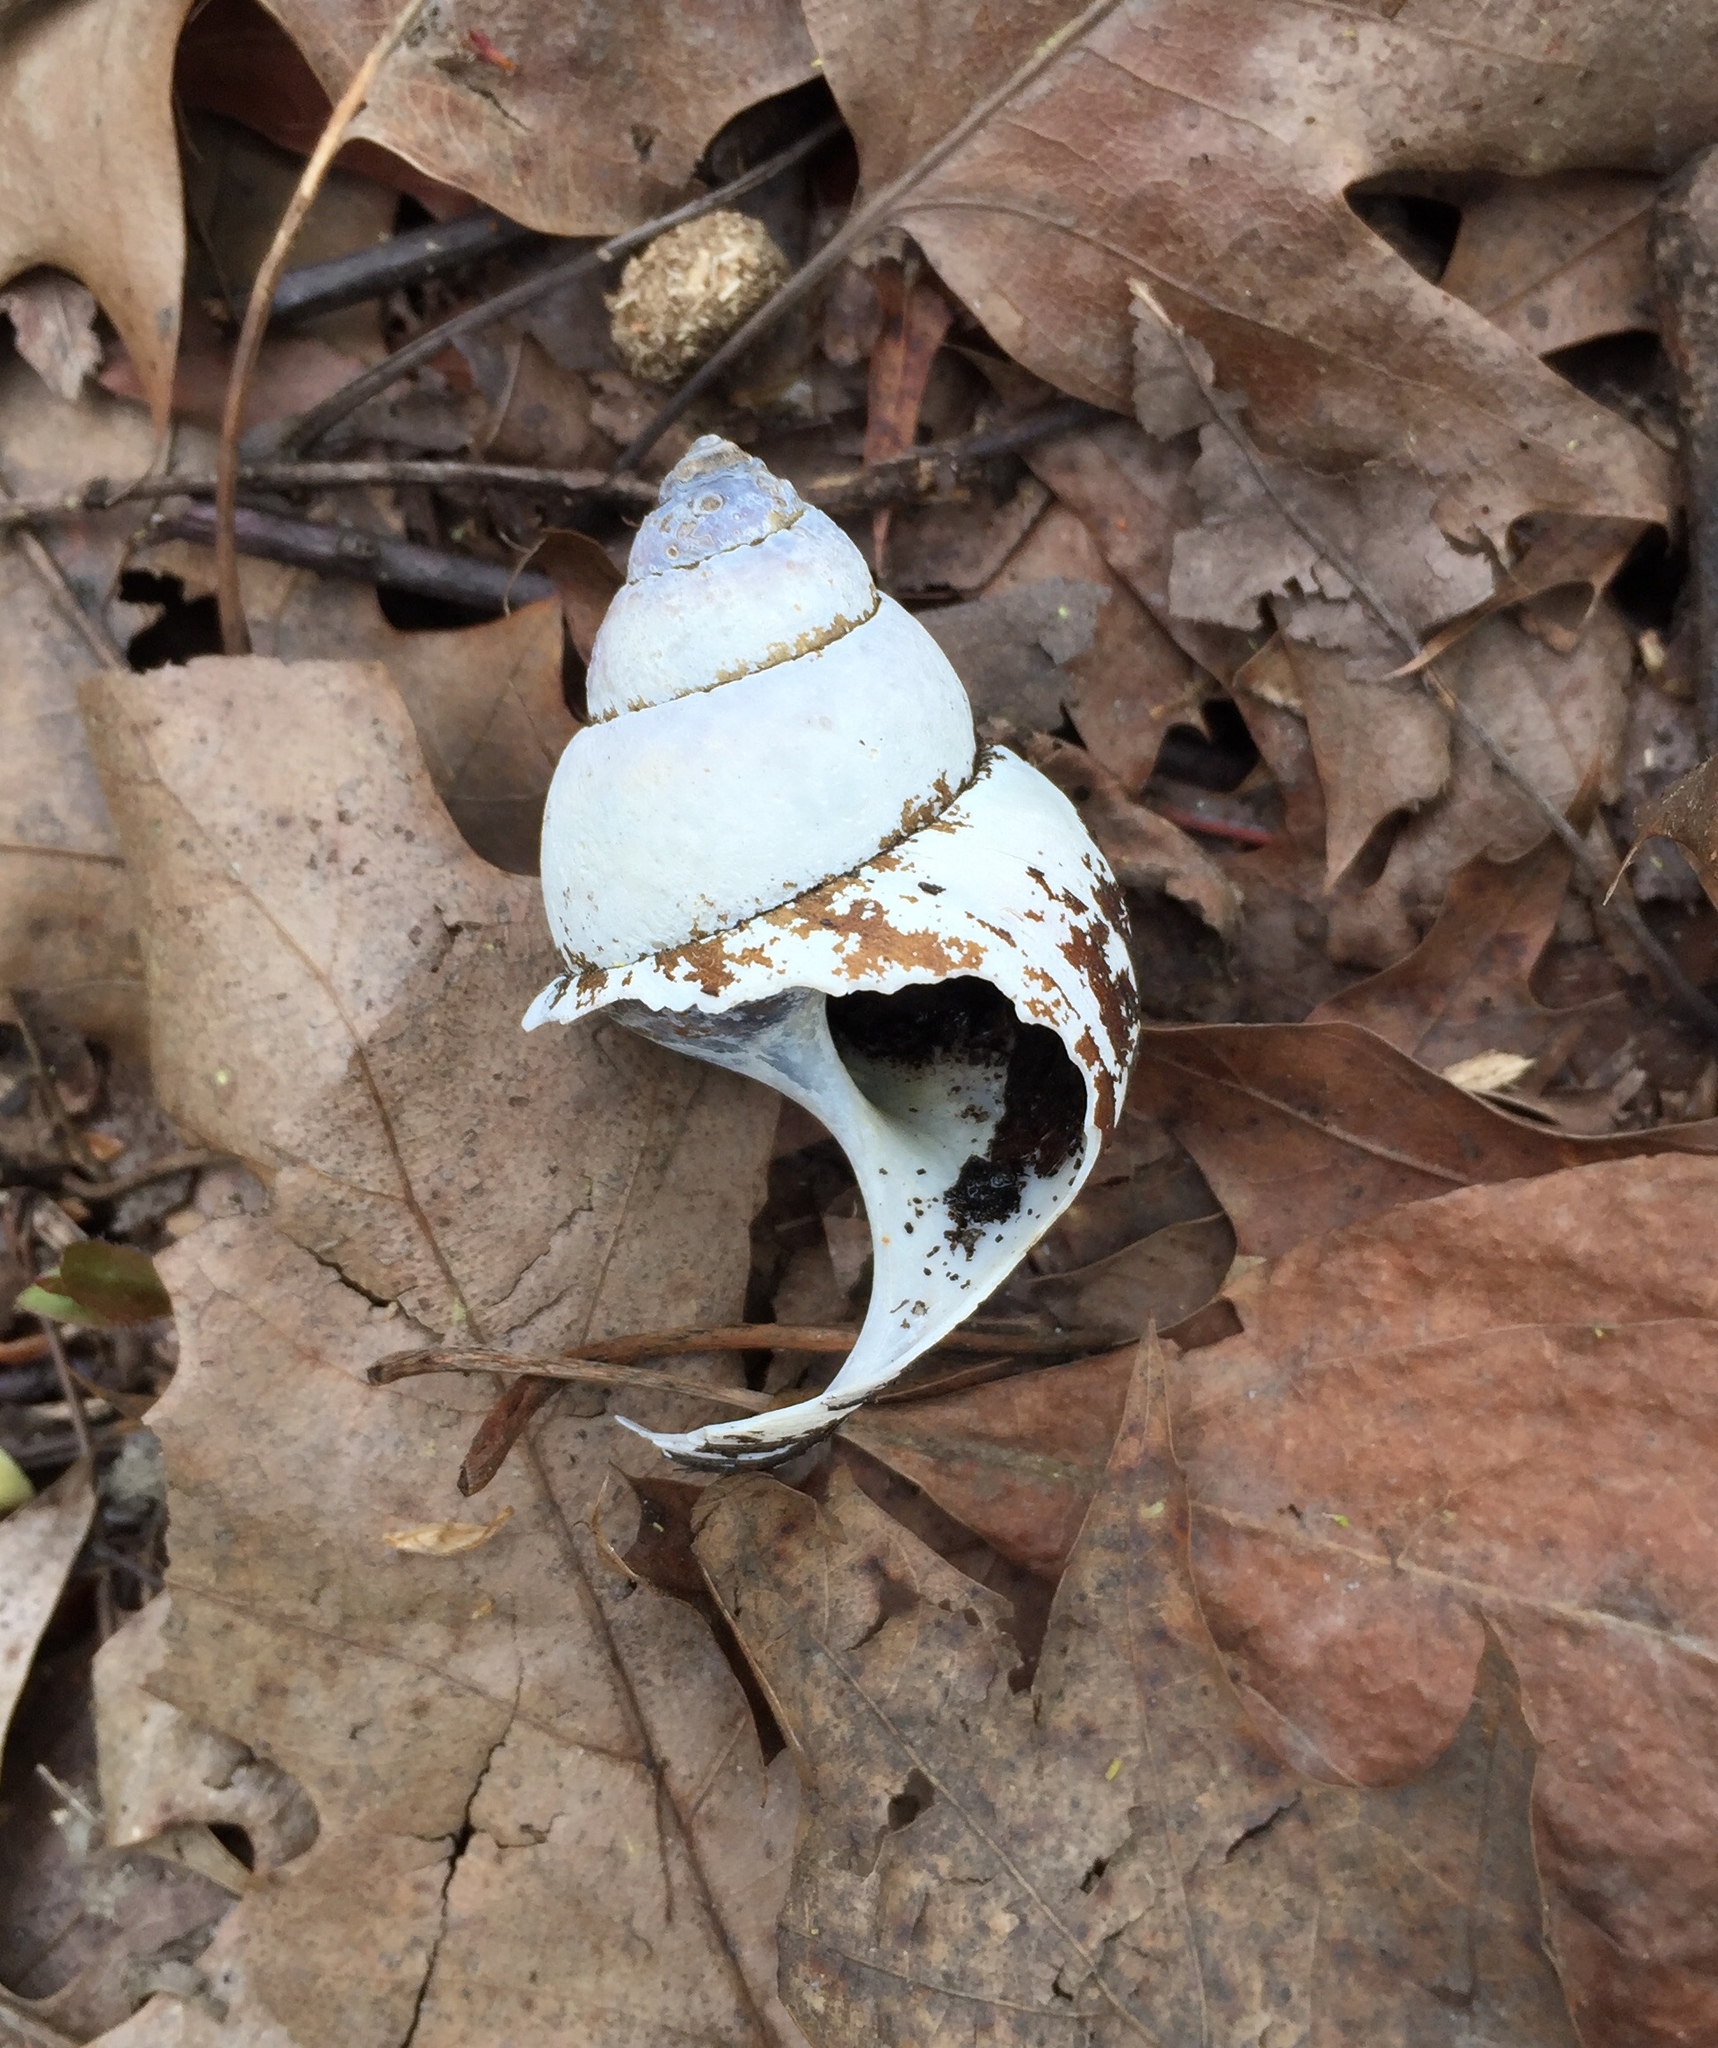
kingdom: Animalia
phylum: Mollusca
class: Gastropoda
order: Architaenioglossa
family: Viviparidae
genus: Cipangopaludina
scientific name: Cipangopaludina chinensis
